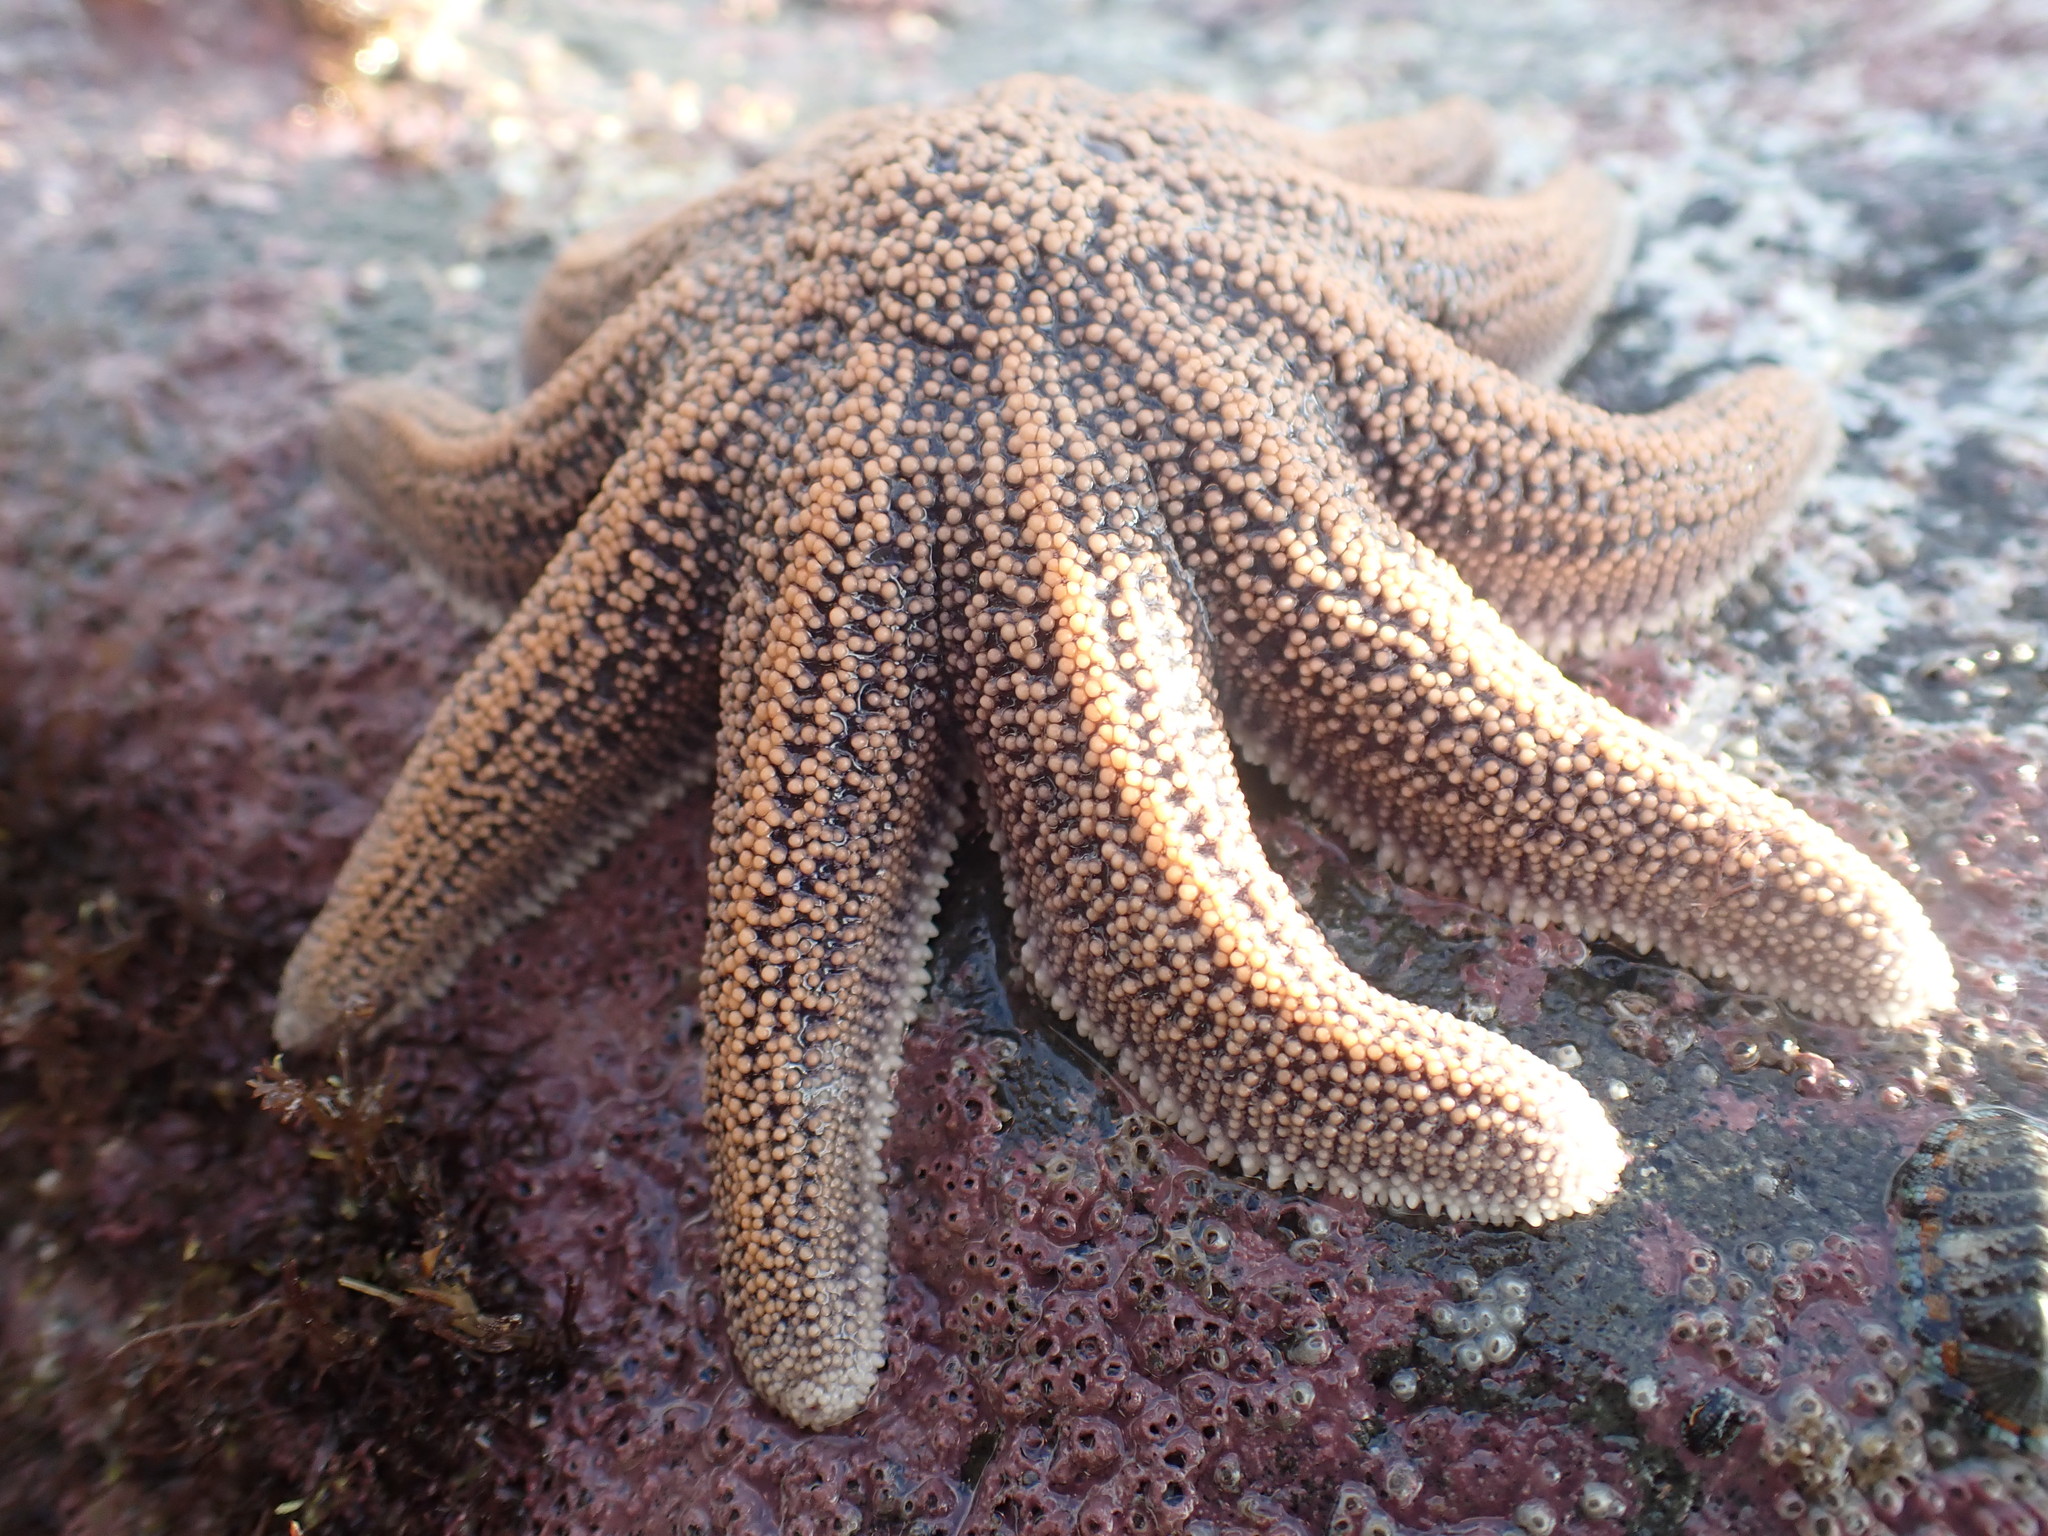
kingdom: Animalia
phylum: Echinodermata
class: Asteroidea
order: Forcipulatida
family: Stichasteridae
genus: Stichaster
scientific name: Stichaster australis
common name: Reef starfish
